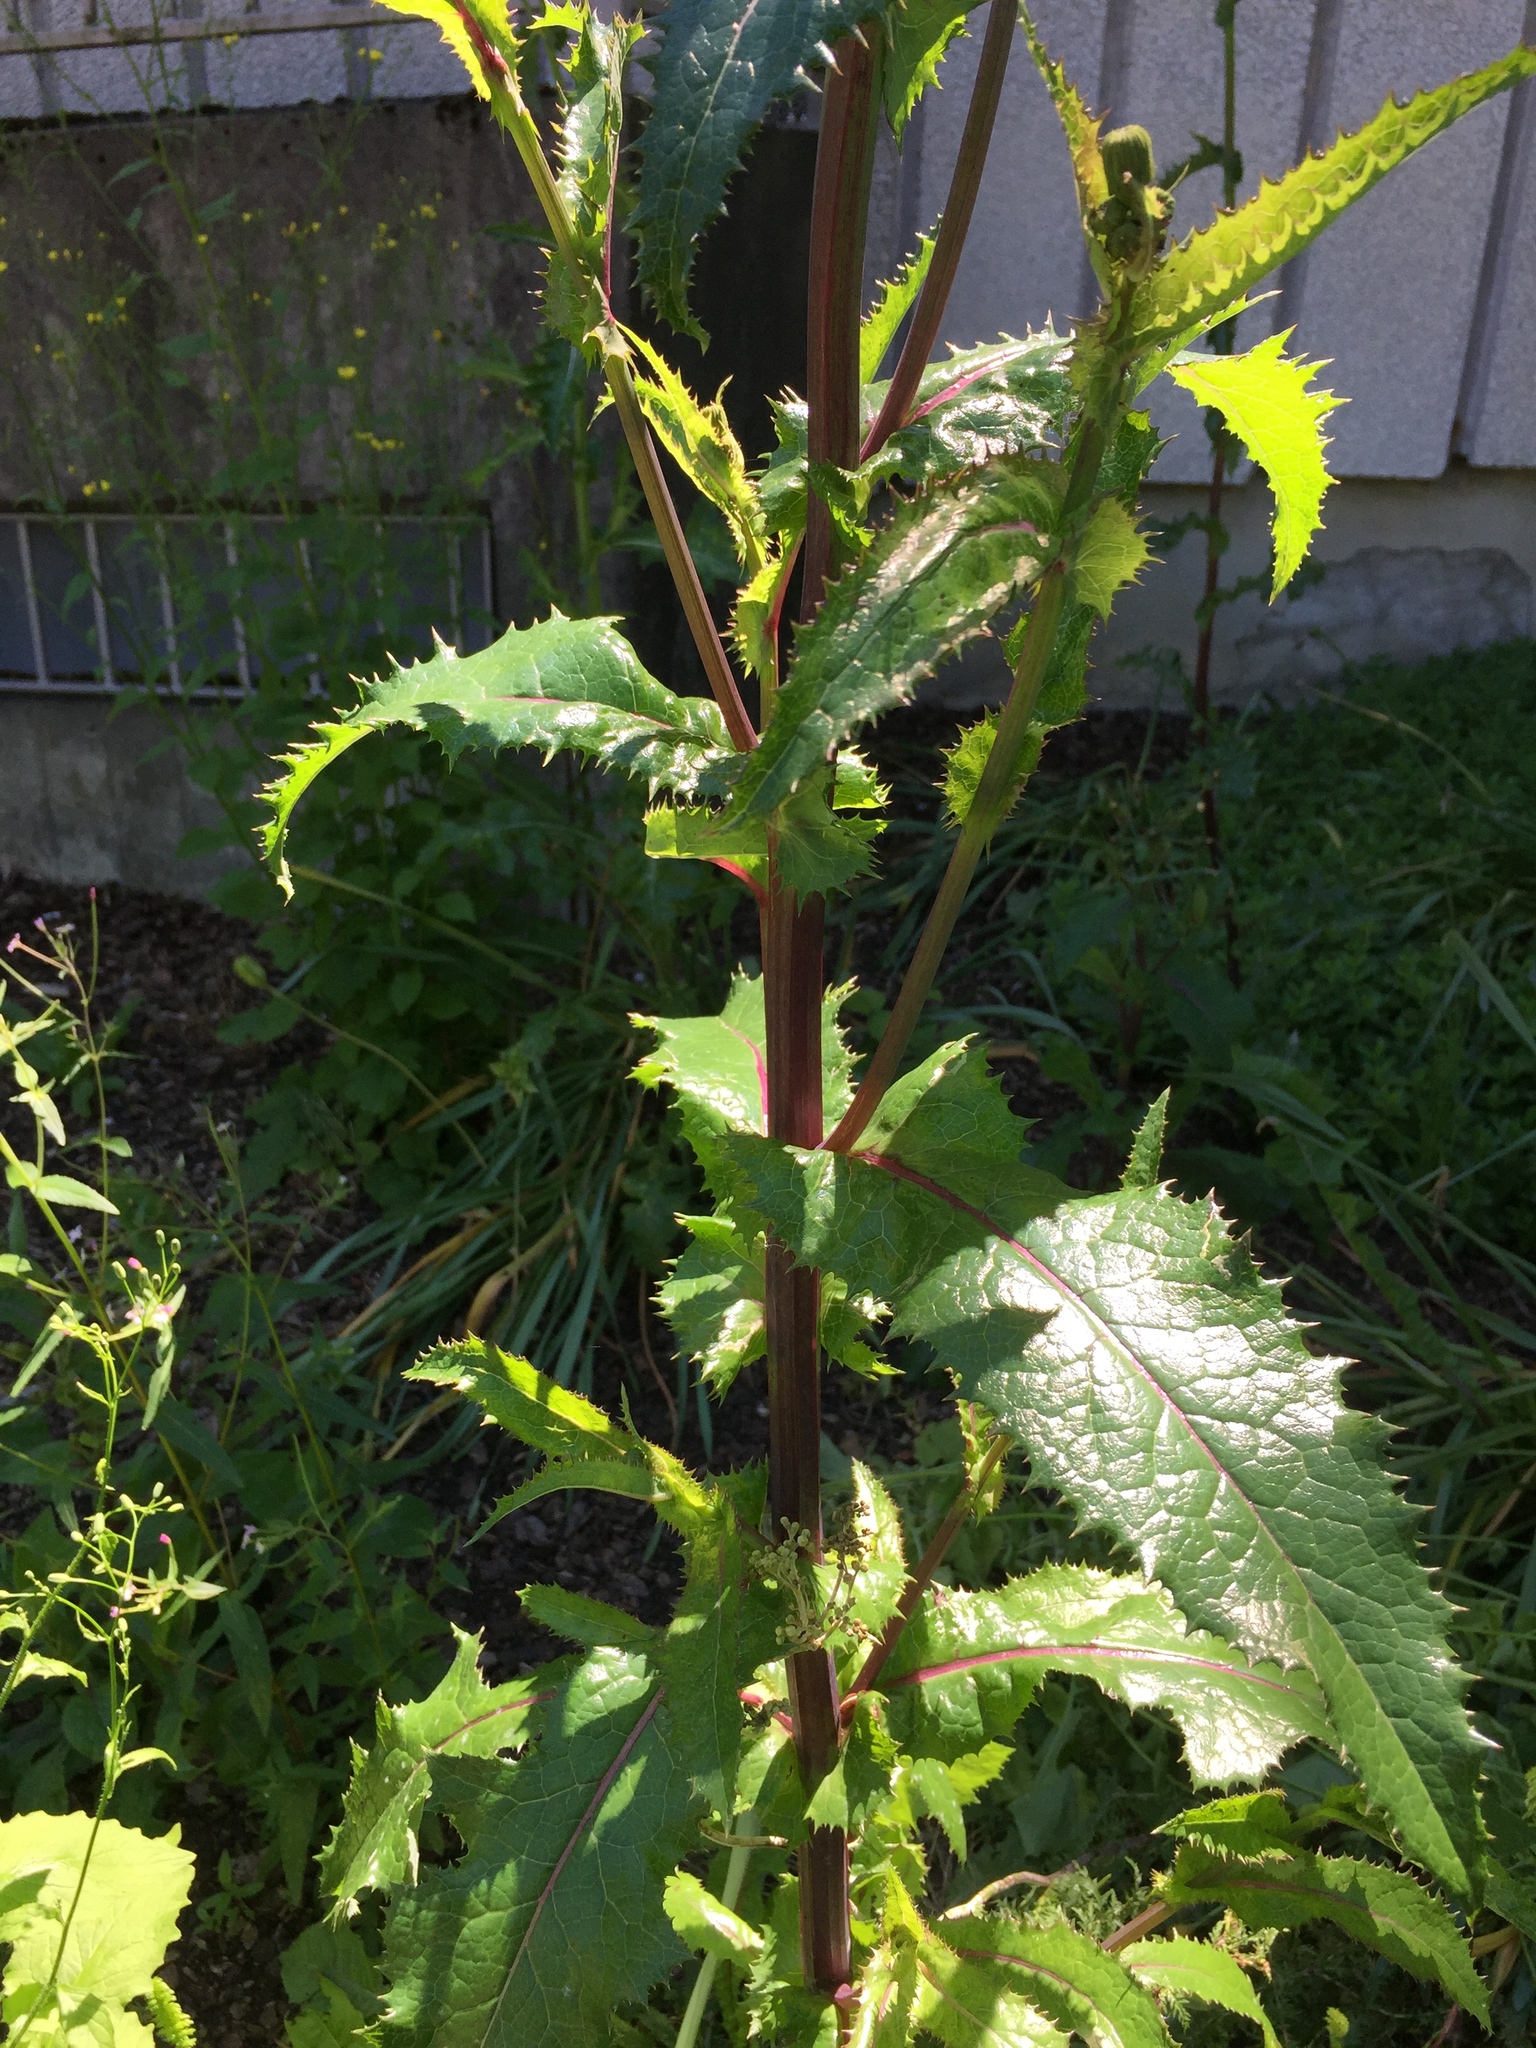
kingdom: Plantae
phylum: Tracheophyta
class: Magnoliopsida
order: Asterales
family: Asteraceae
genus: Sonchus
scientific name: Sonchus asper
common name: Prickly sow-thistle
